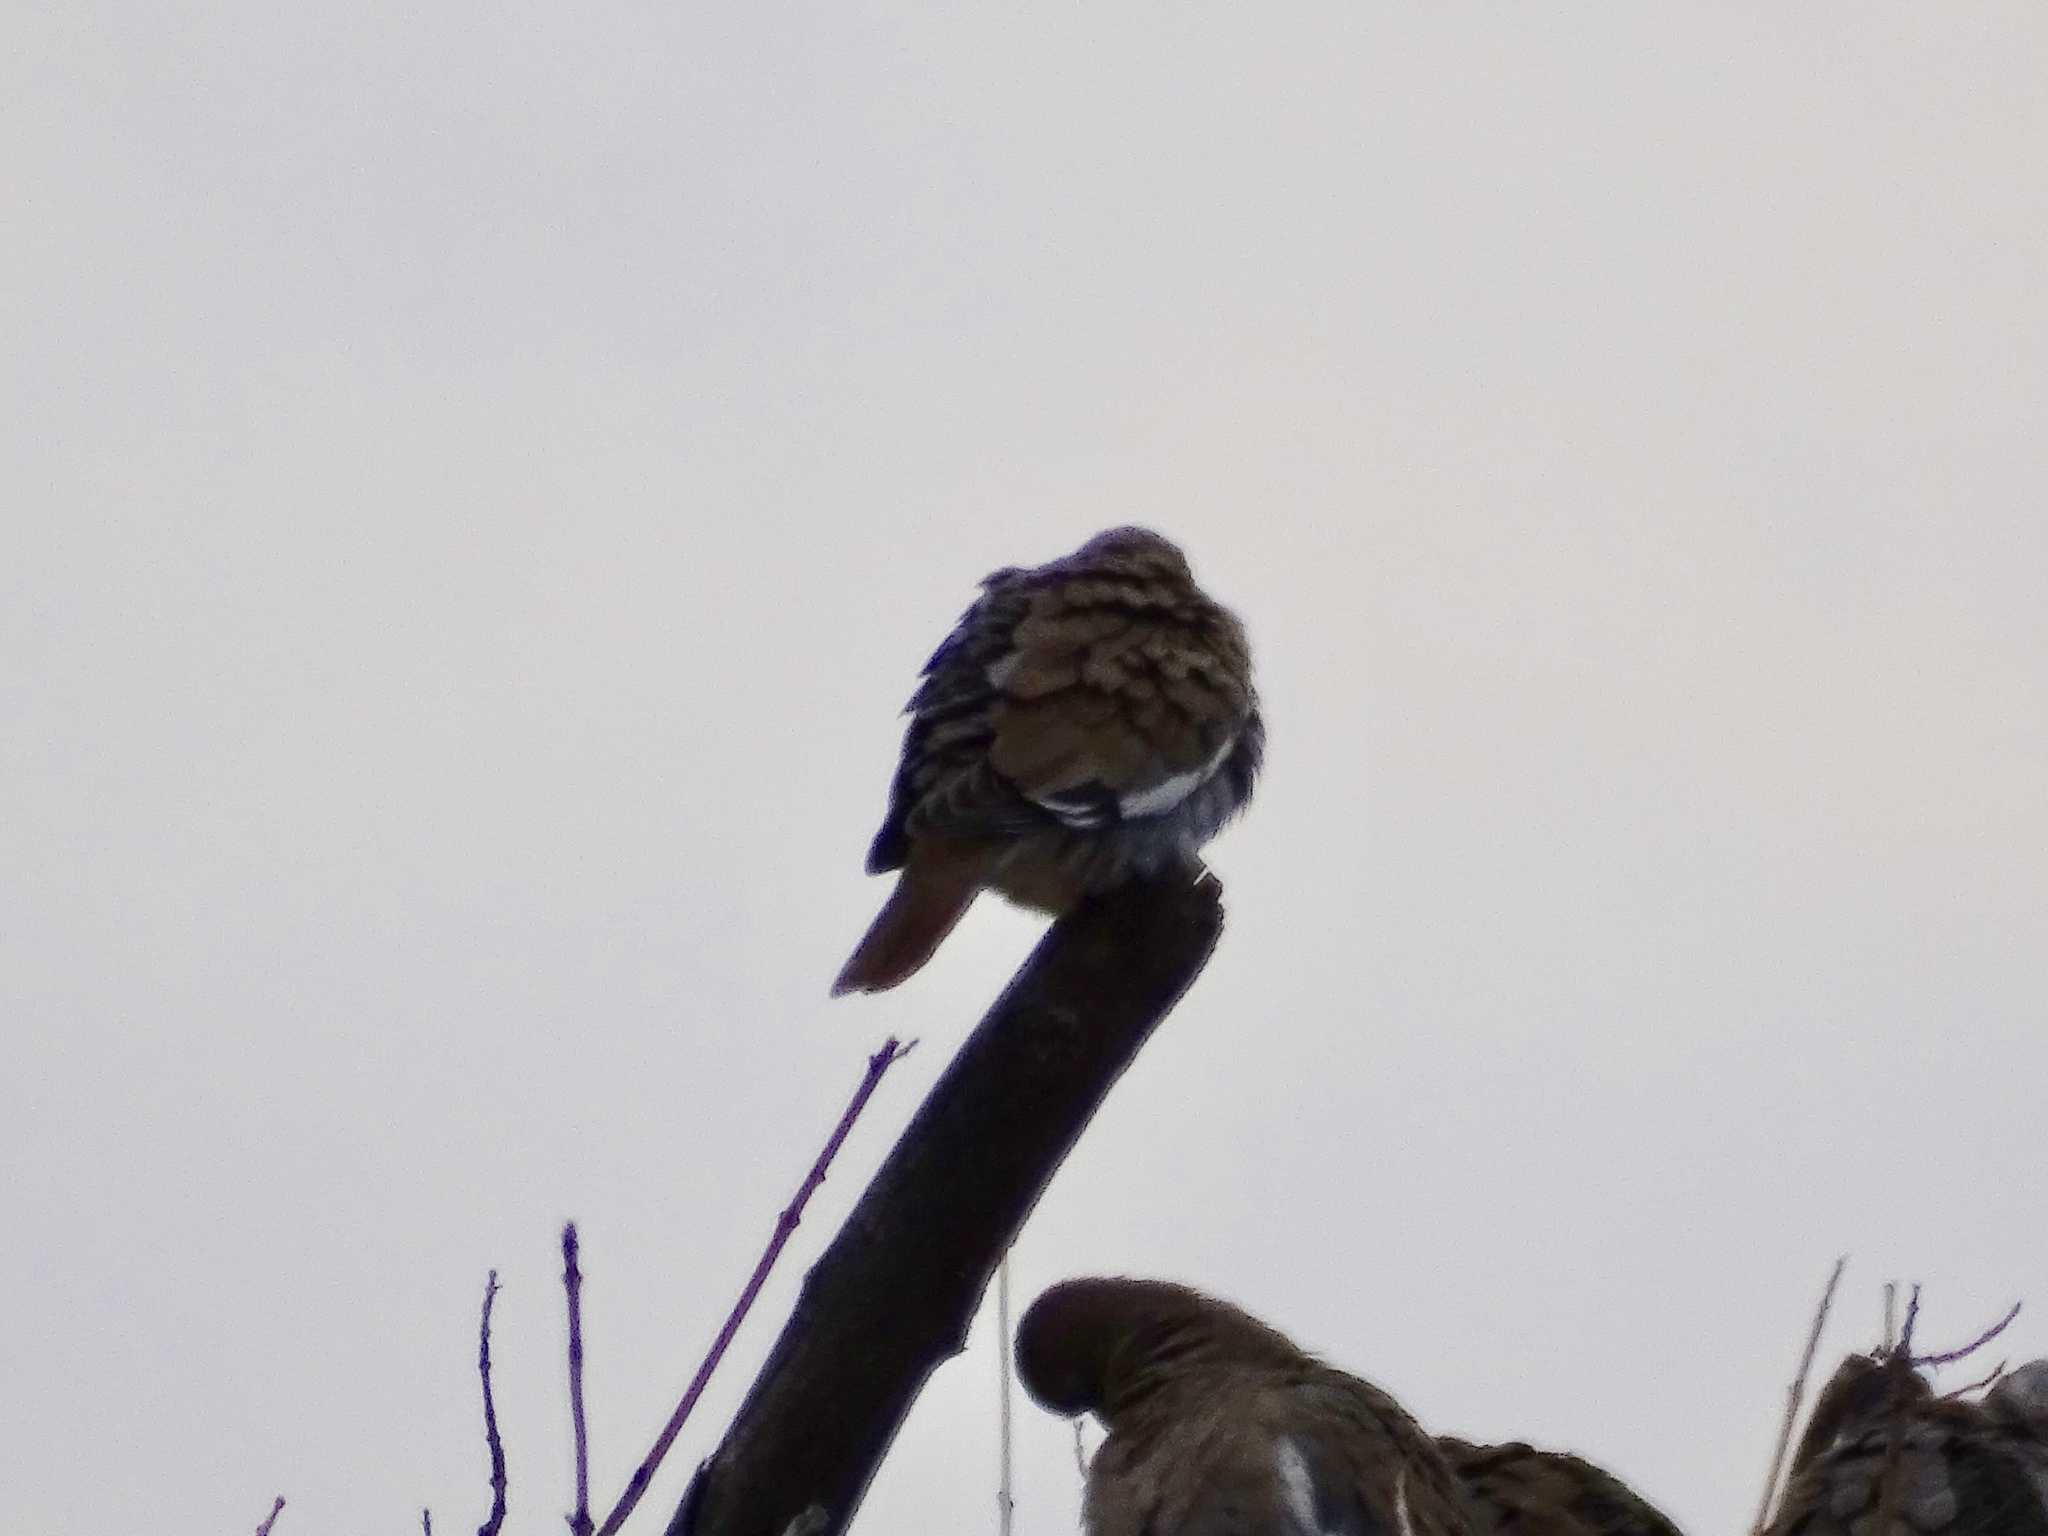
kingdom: Animalia
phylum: Chordata
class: Aves
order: Columbiformes
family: Columbidae
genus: Zenaida
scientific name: Zenaida asiatica
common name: White-winged dove
